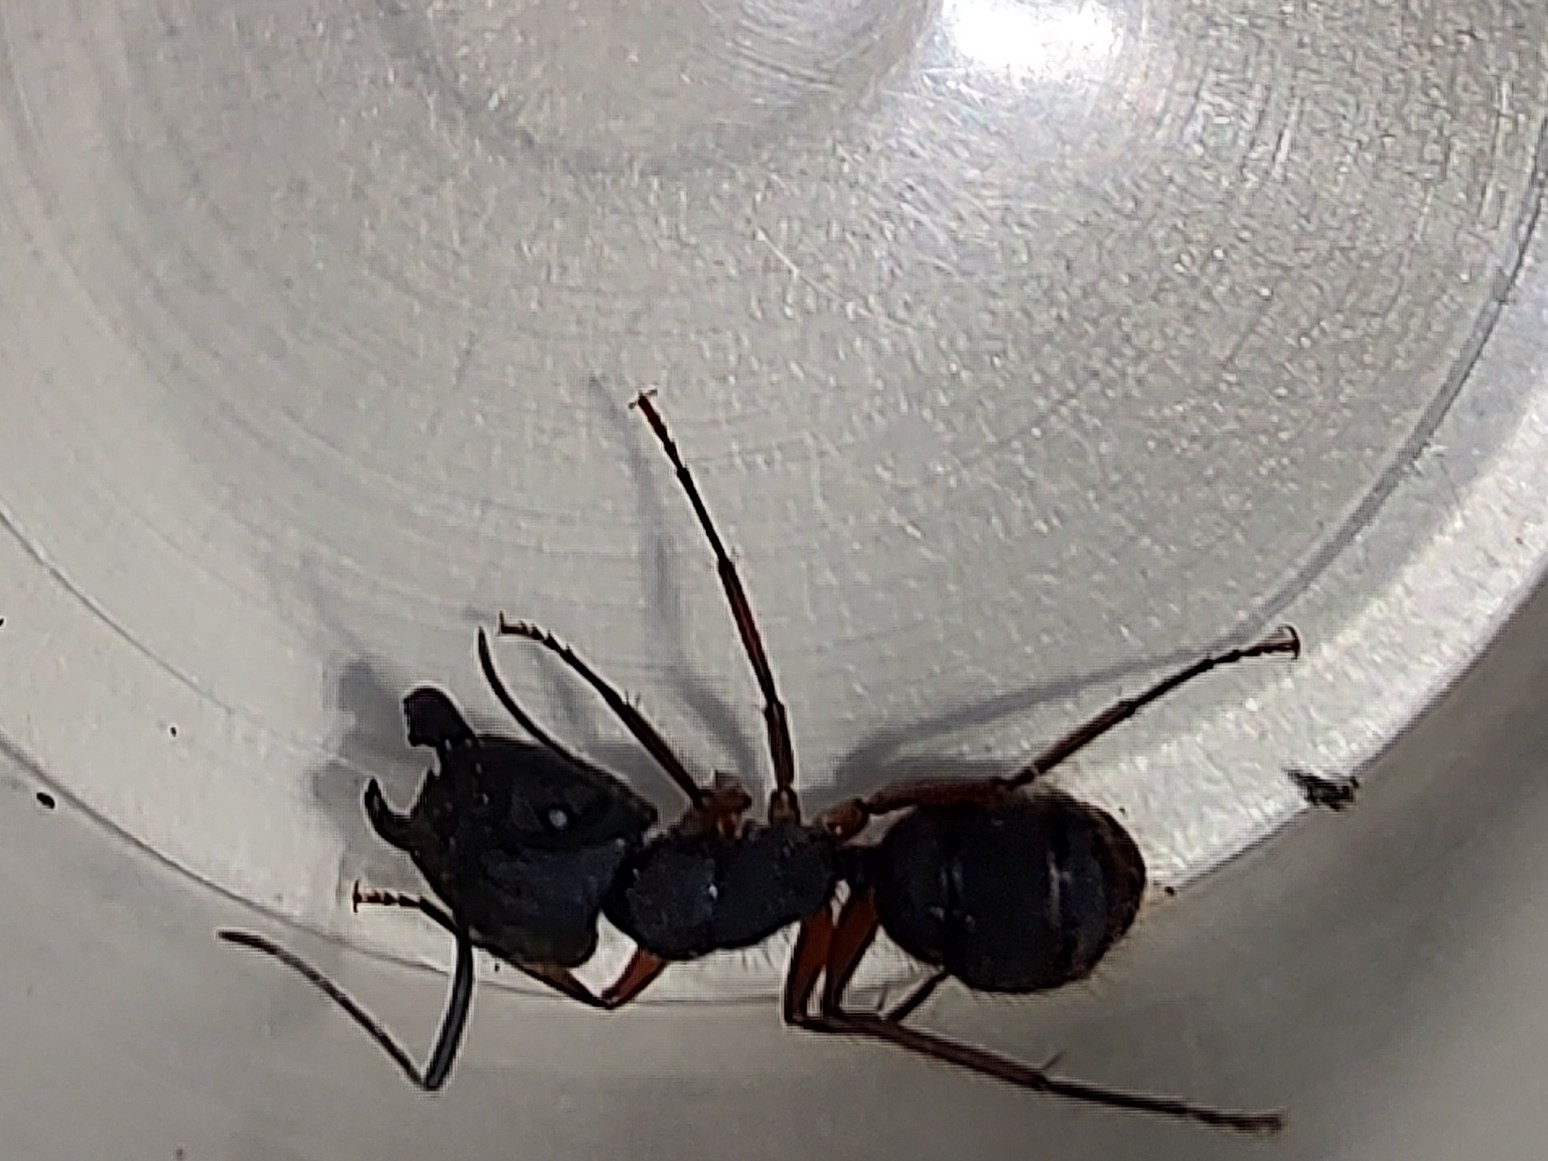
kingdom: Animalia
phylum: Arthropoda
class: Insecta
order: Hymenoptera
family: Formicidae
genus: Camponotus
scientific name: Camponotus rufipes
